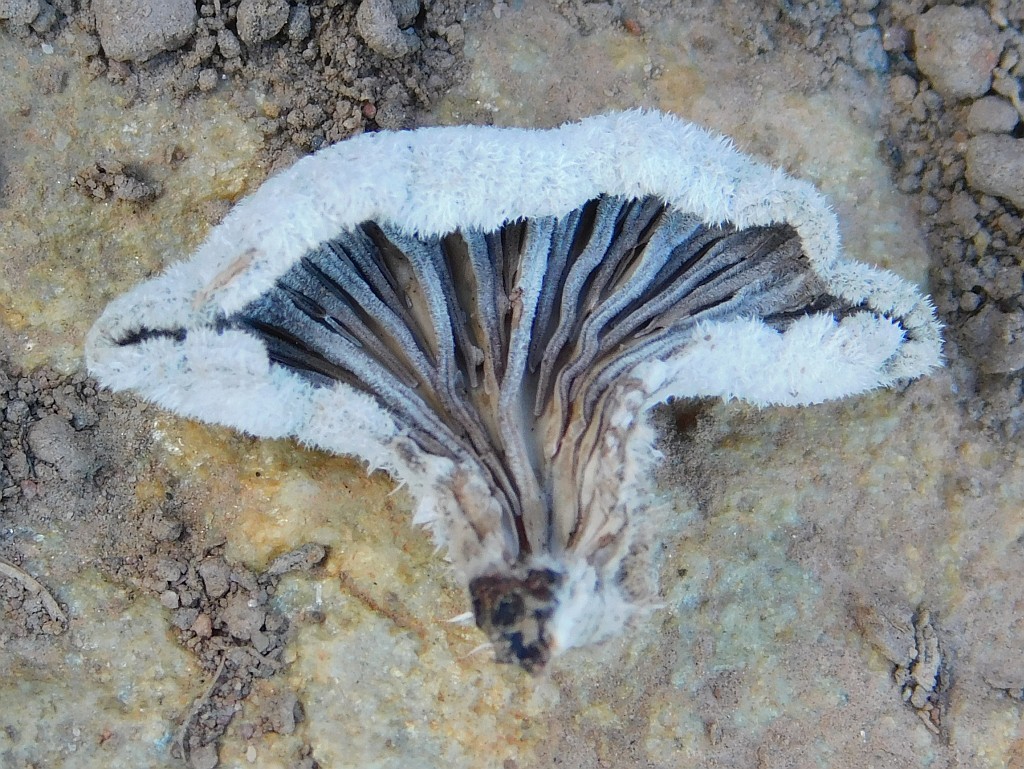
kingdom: Fungi
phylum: Basidiomycota
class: Agaricomycetes
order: Agaricales
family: Schizophyllaceae
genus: Schizophyllum
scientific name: Schizophyllum commune
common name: Common porecrust
